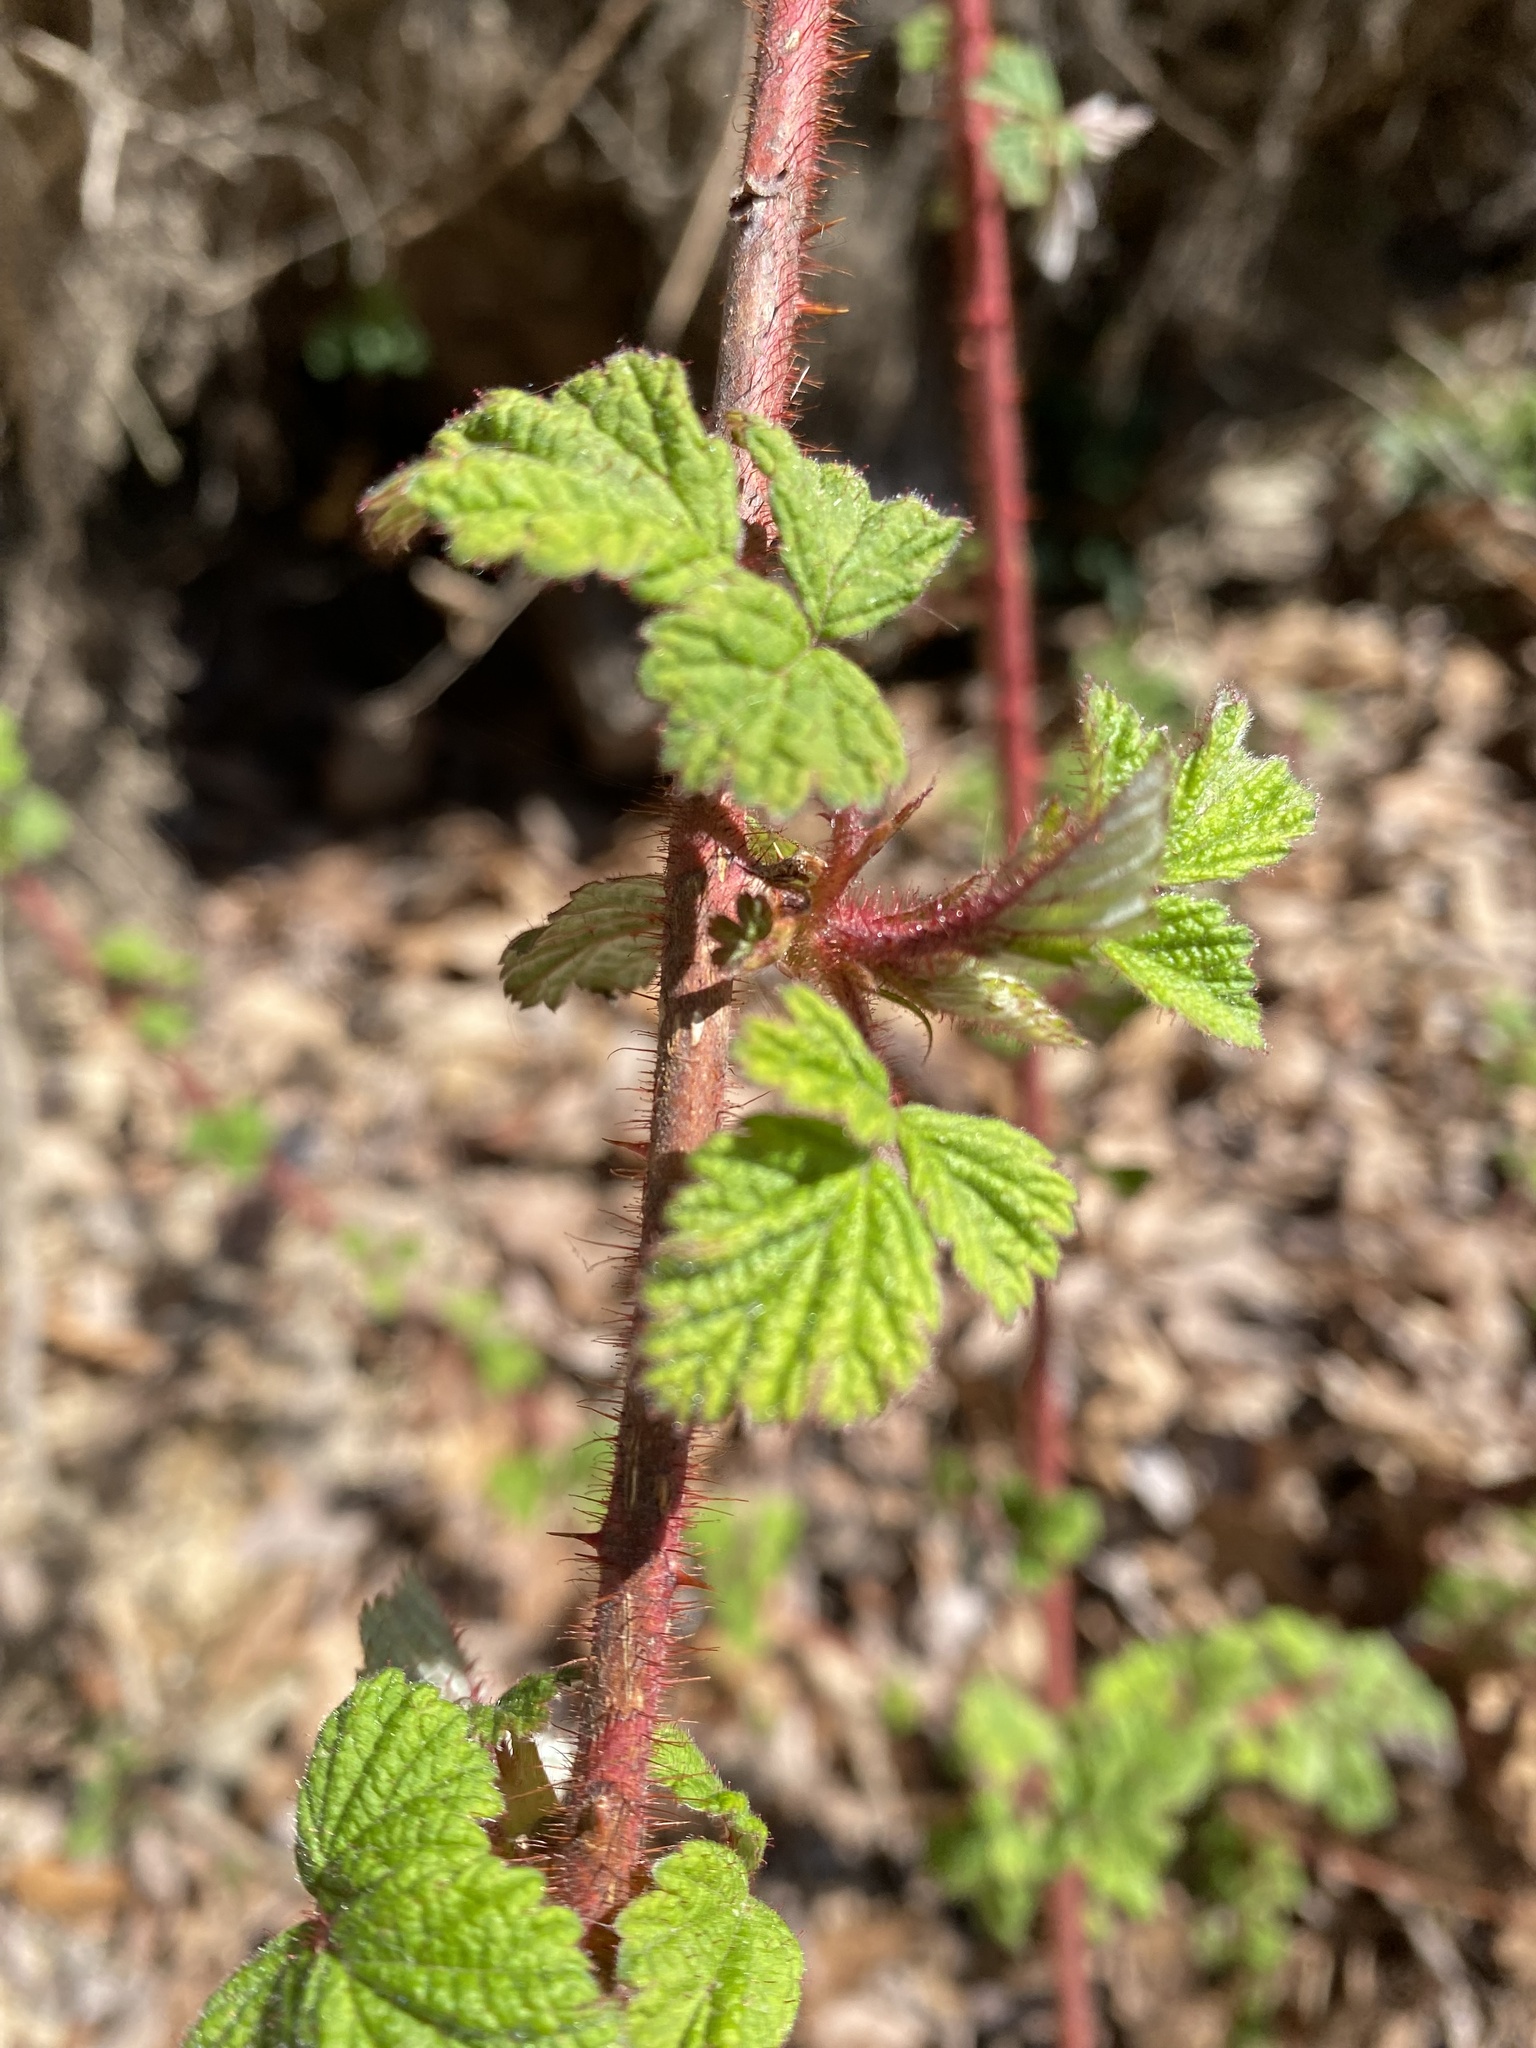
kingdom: Plantae
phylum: Tracheophyta
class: Magnoliopsida
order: Rosales
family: Rosaceae
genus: Rubus
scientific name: Rubus phoenicolasius
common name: Japanese wineberry
